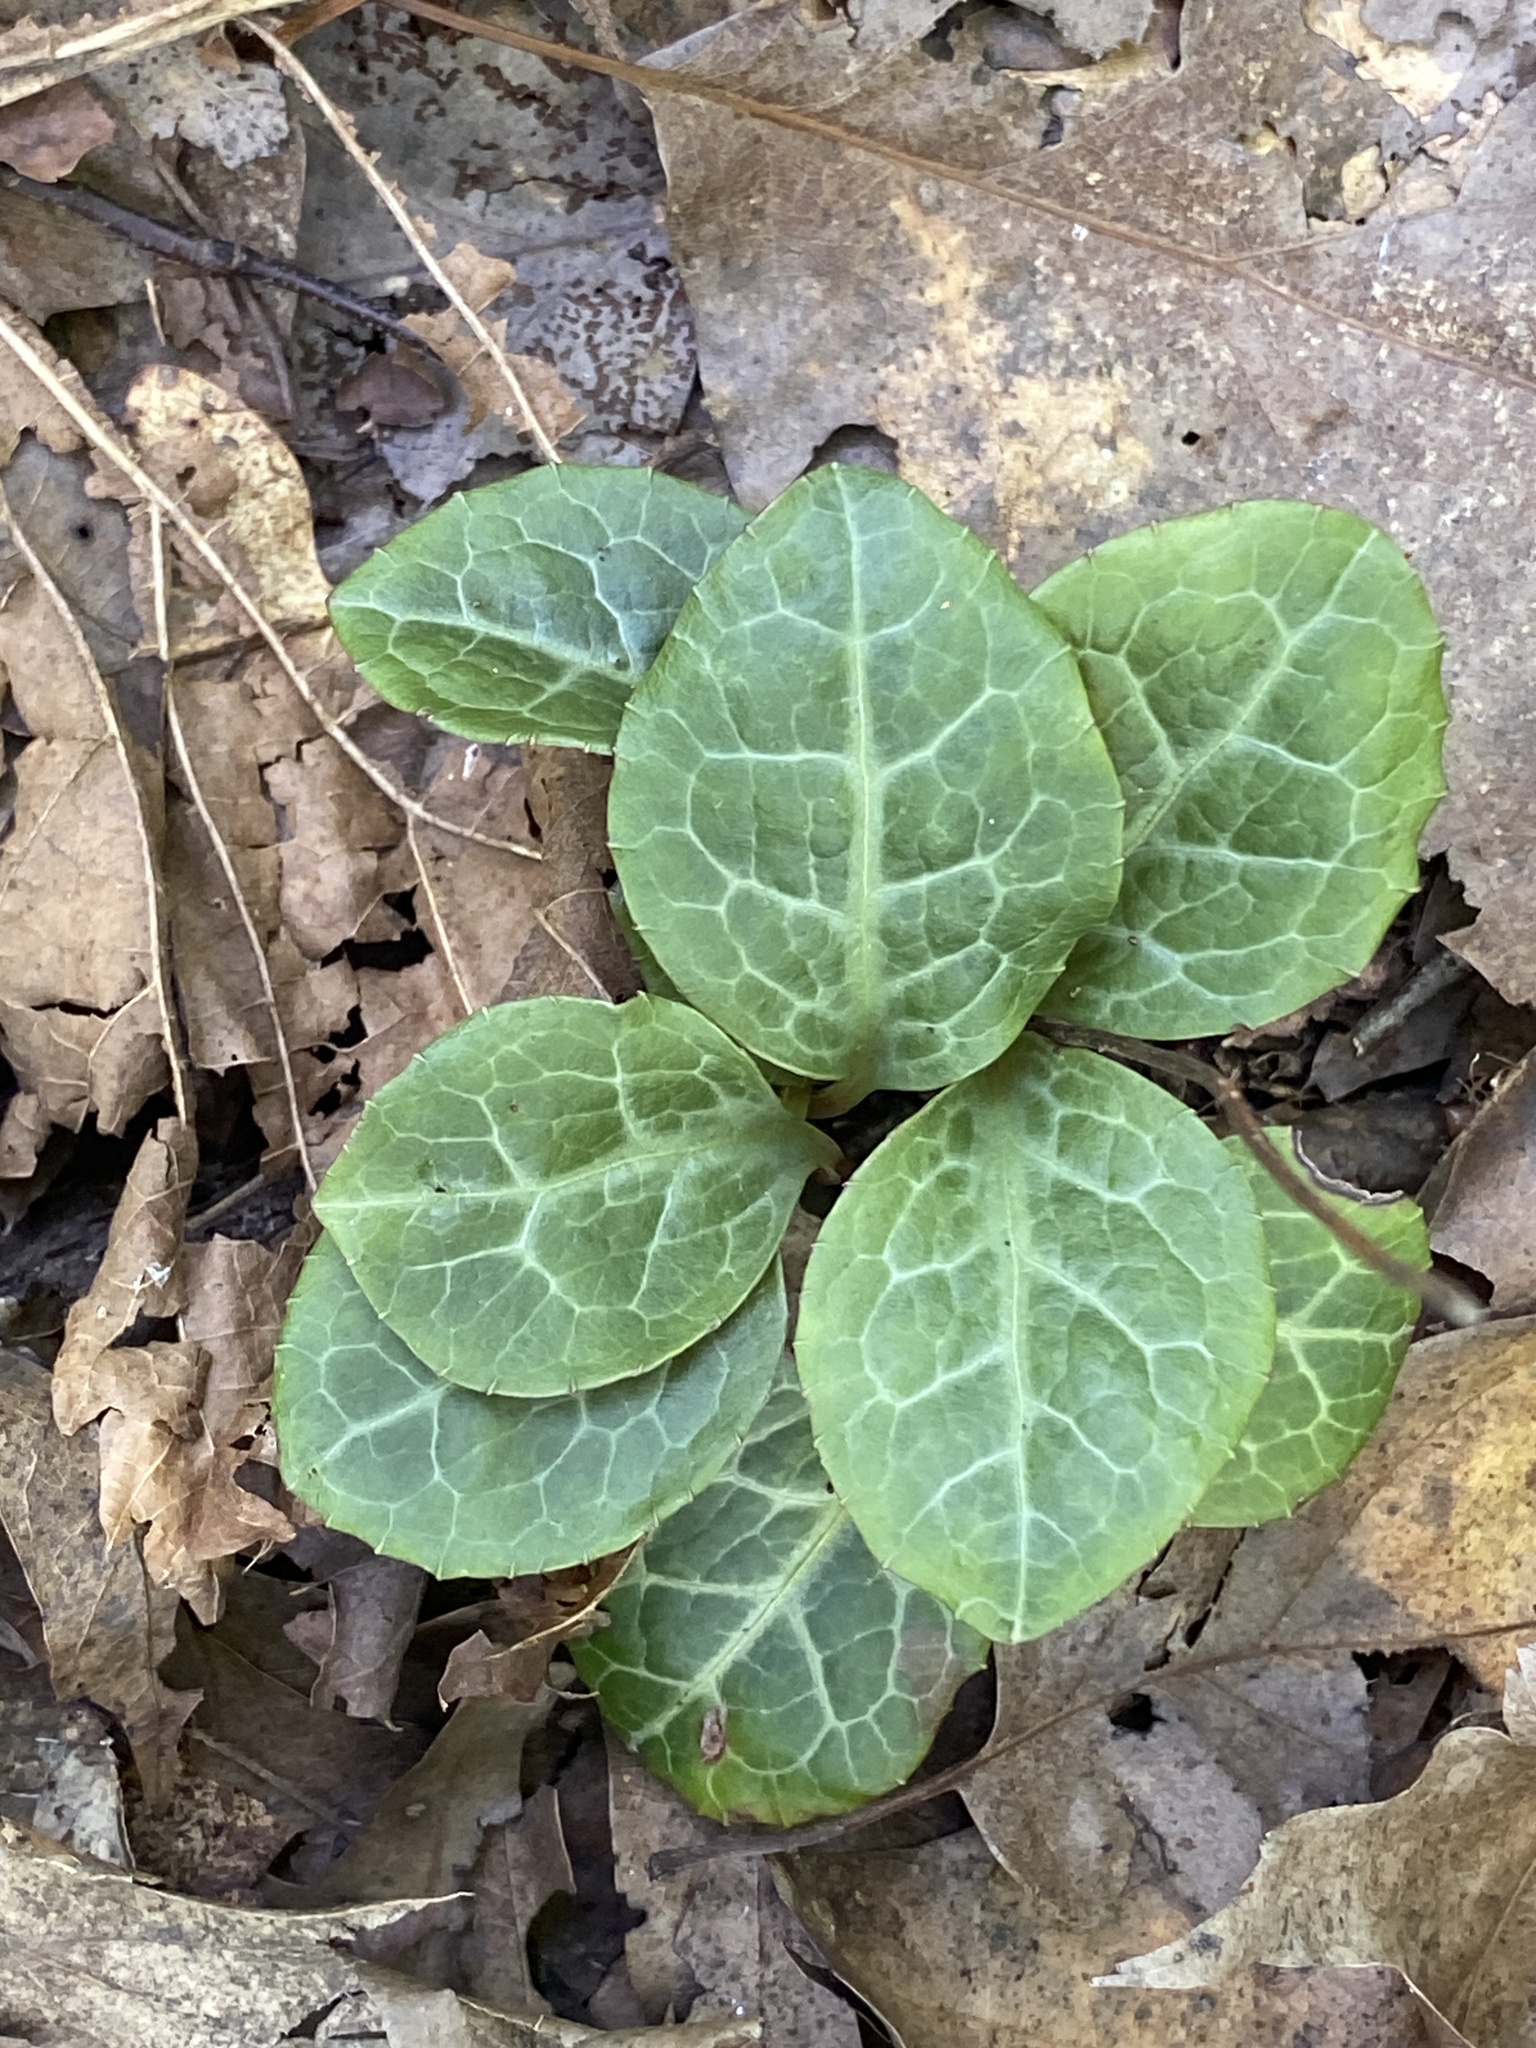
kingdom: Plantae
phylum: Tracheophyta
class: Magnoliopsida
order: Ericales
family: Ericaceae
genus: Pyrola
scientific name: Pyrola americana
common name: American wintergreen
